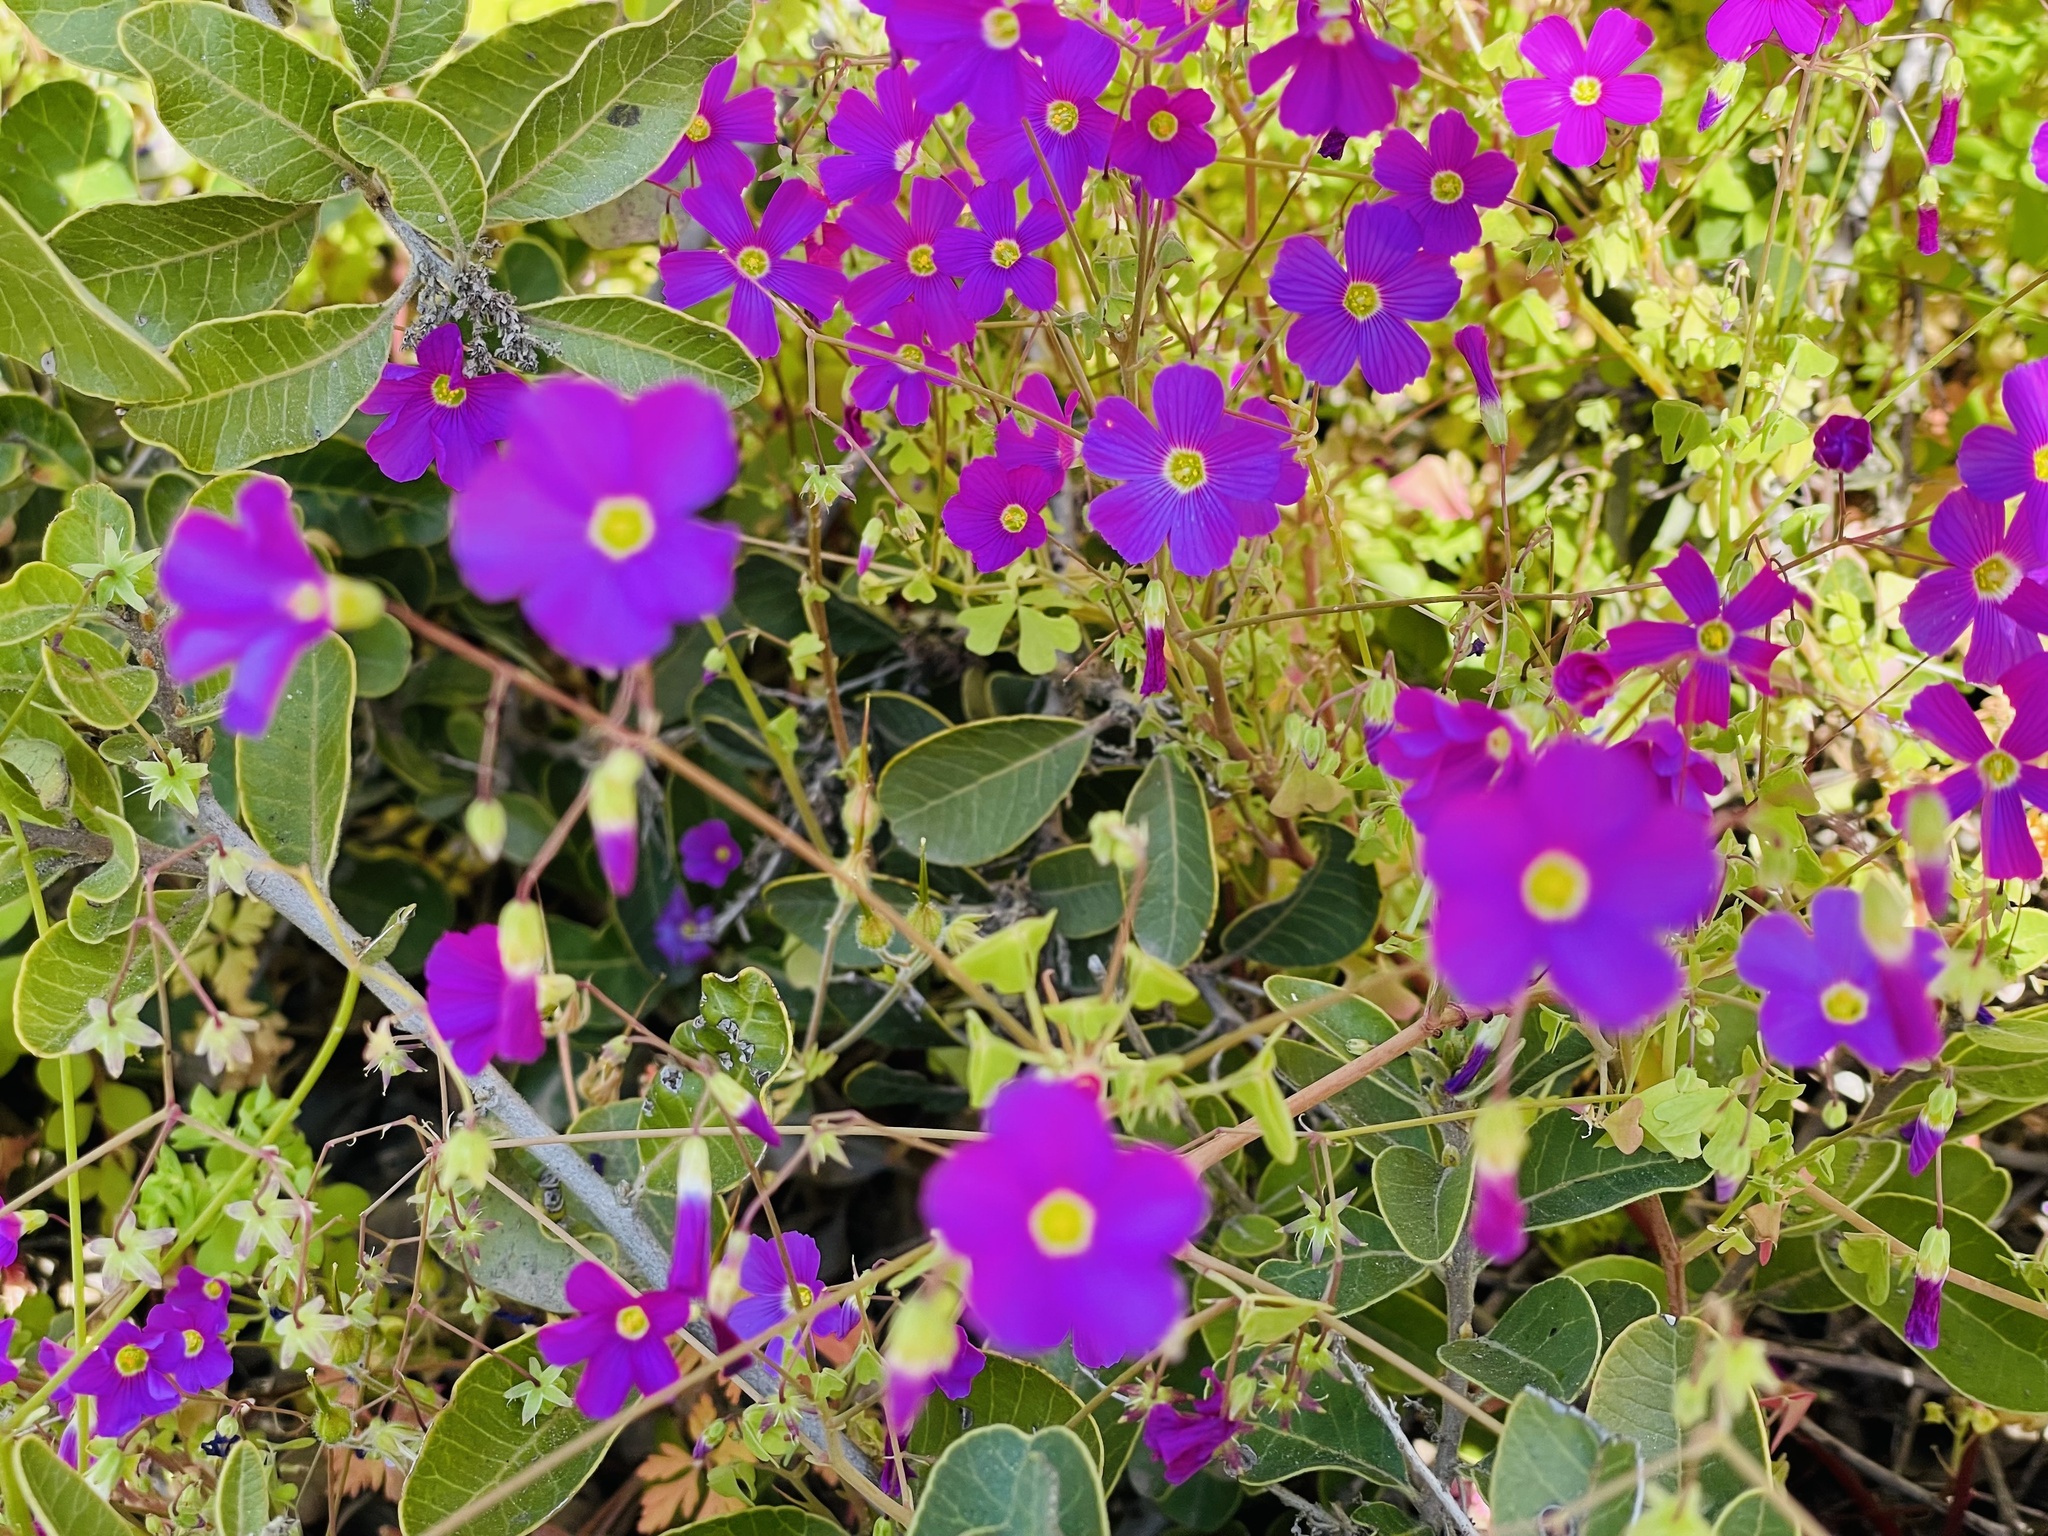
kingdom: Plantae
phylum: Tracheophyta
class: Magnoliopsida
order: Oxalidales
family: Oxalidaceae
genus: Oxalis
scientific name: Oxalis rosea
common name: Annual pink-sorrel
